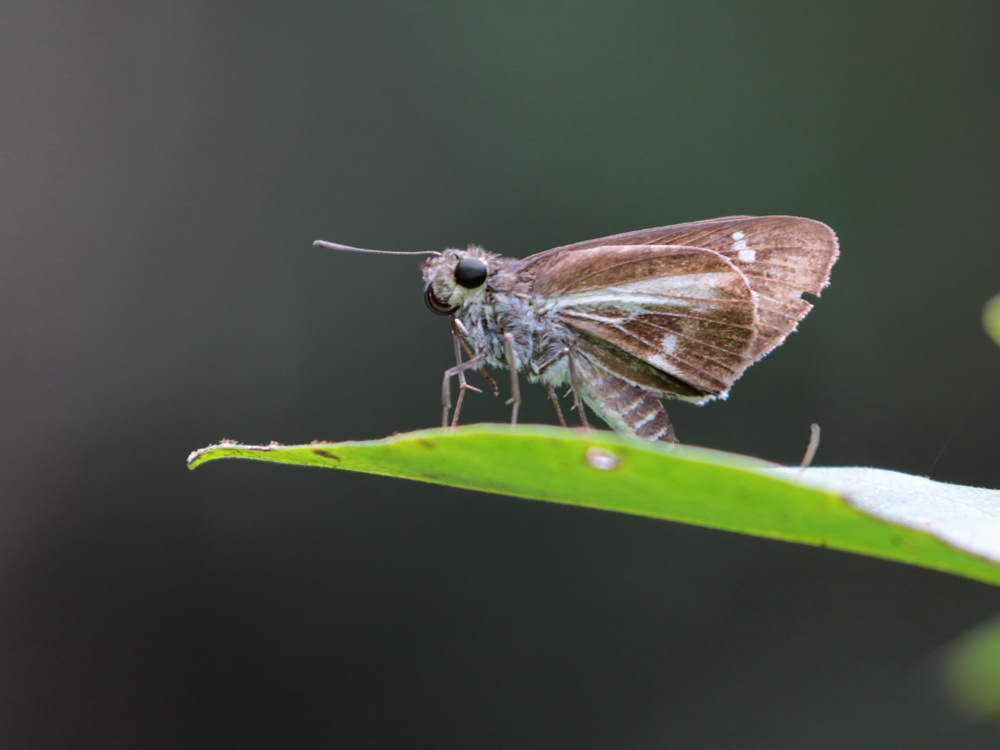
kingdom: Animalia
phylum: Arthropoda
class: Insecta
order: Lepidoptera
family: Hesperiidae
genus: Iton
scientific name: Iton watsonii
